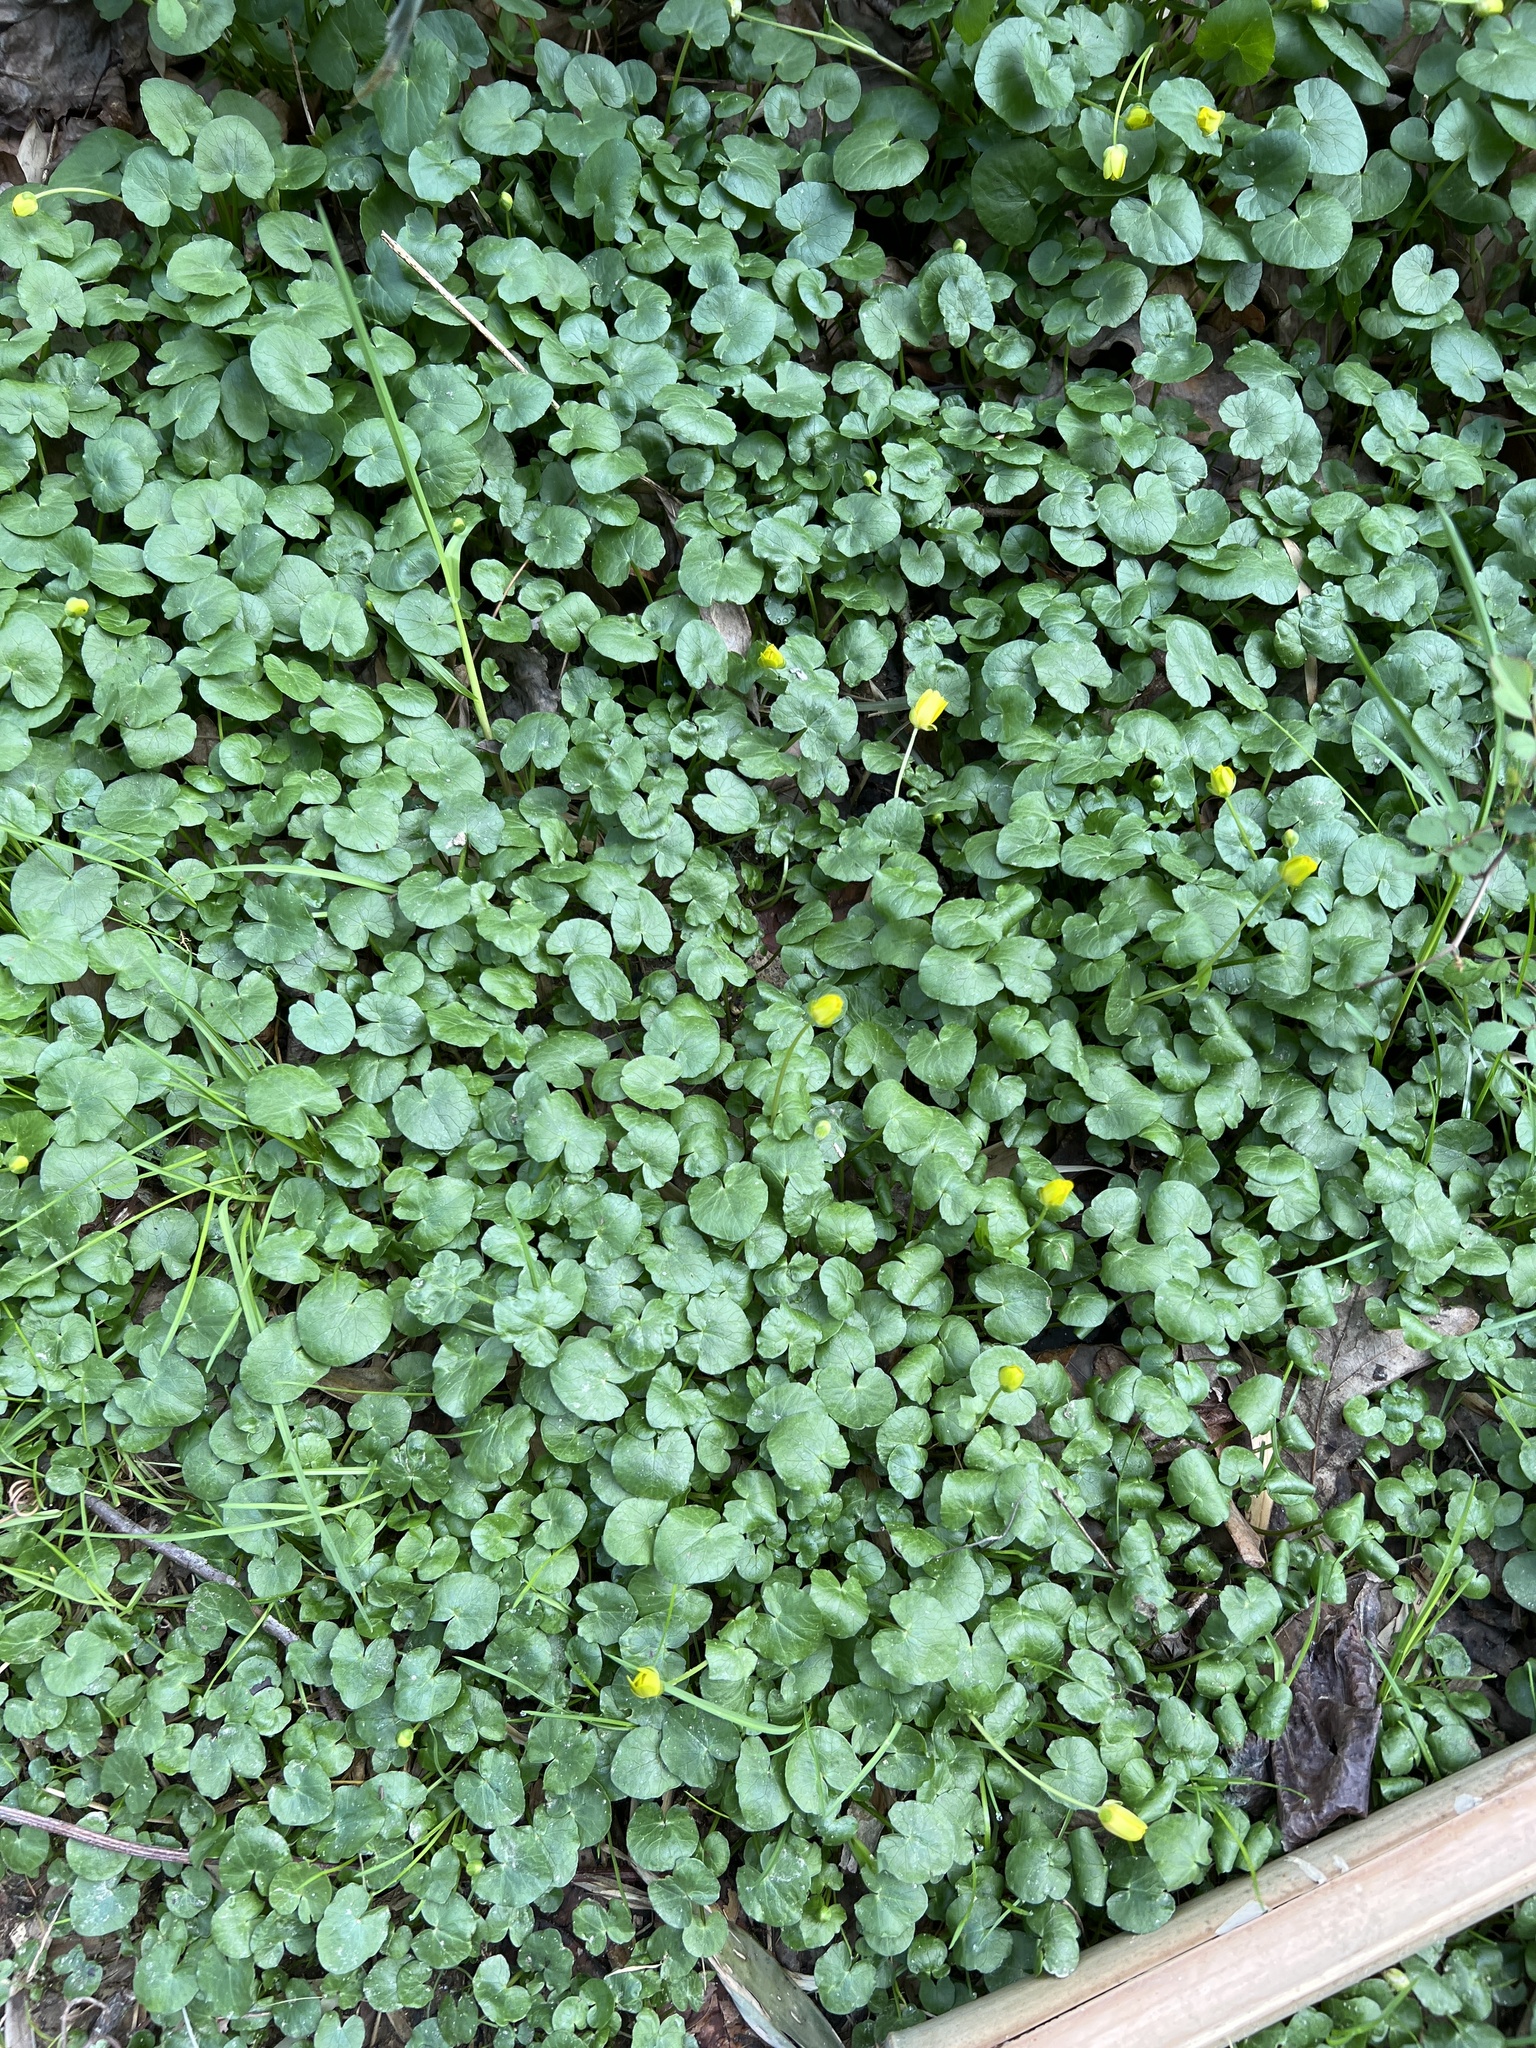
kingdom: Plantae
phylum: Tracheophyta
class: Magnoliopsida
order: Ranunculales
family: Ranunculaceae
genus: Ficaria
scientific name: Ficaria verna
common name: Lesser celandine
